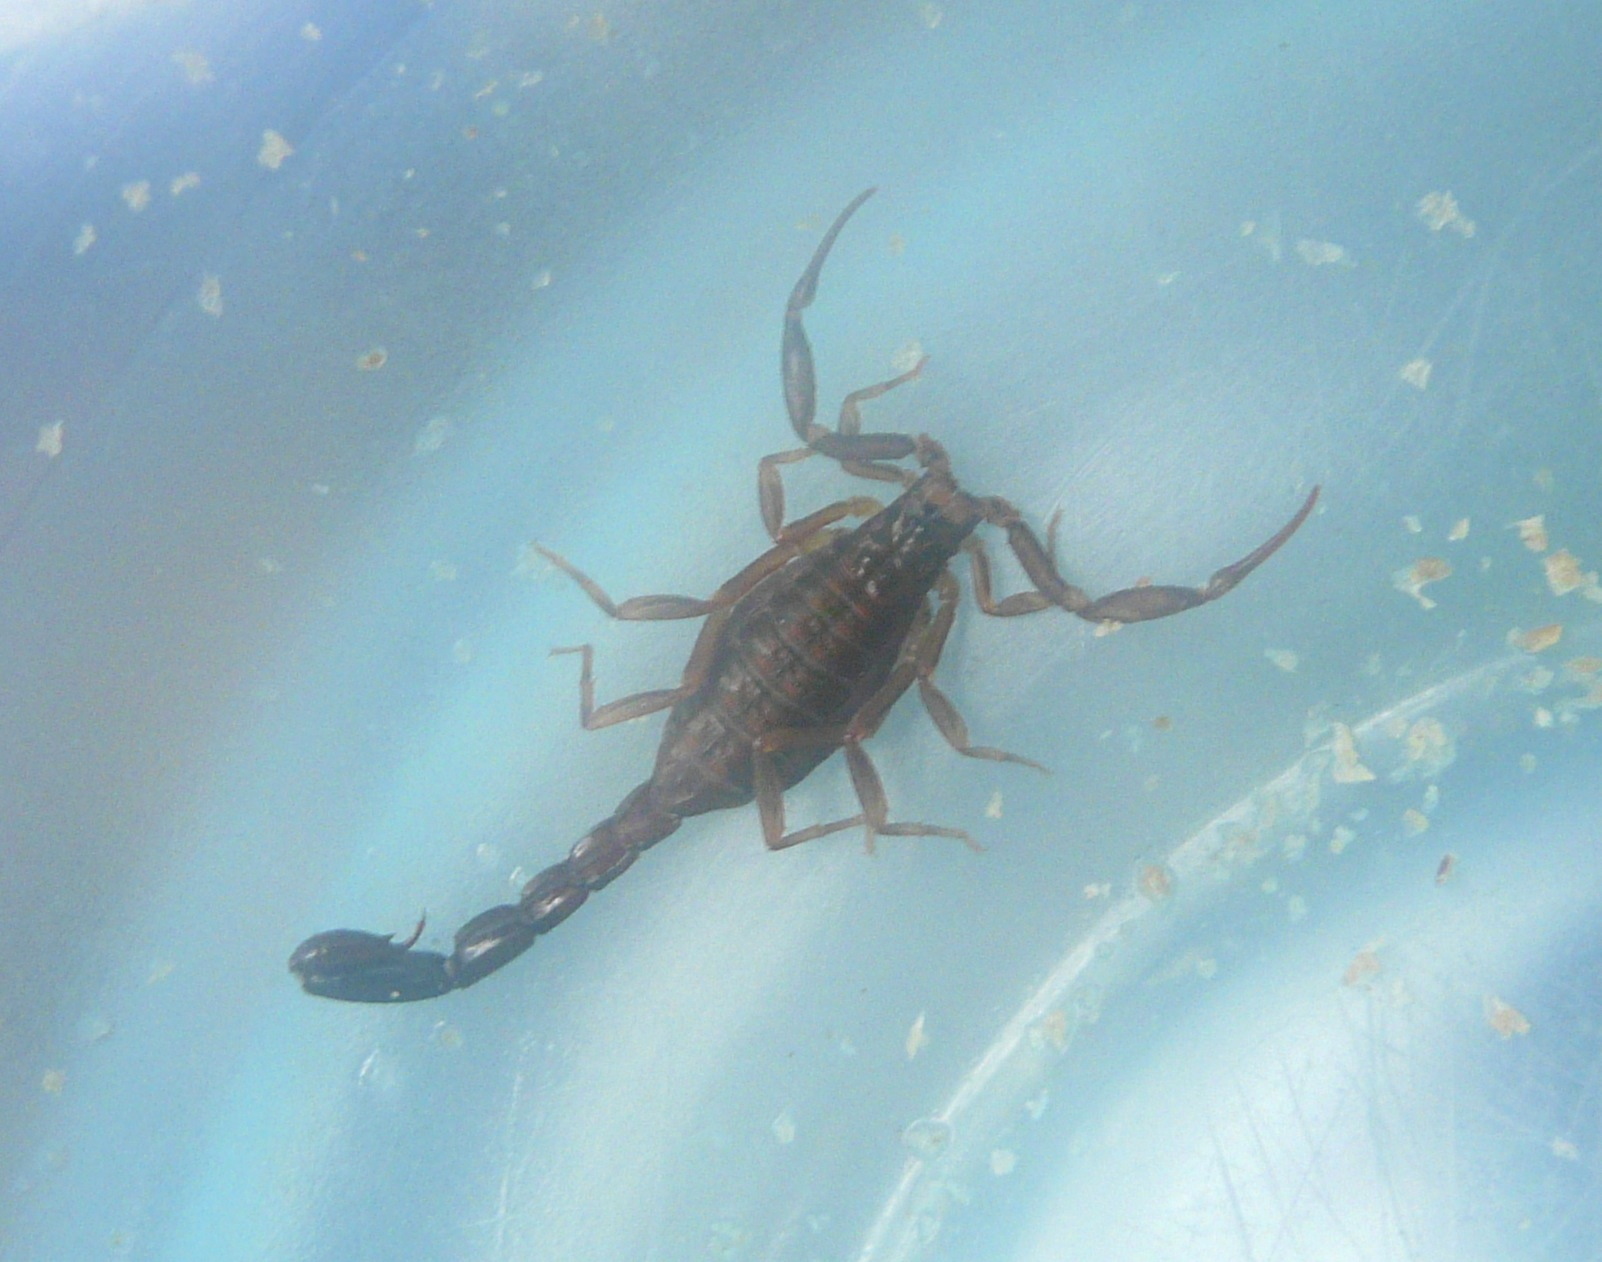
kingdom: Animalia
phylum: Arthropoda
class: Arachnida
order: Scorpiones
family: Buthidae
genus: Ananteris
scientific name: Ananteris venezuelensis
